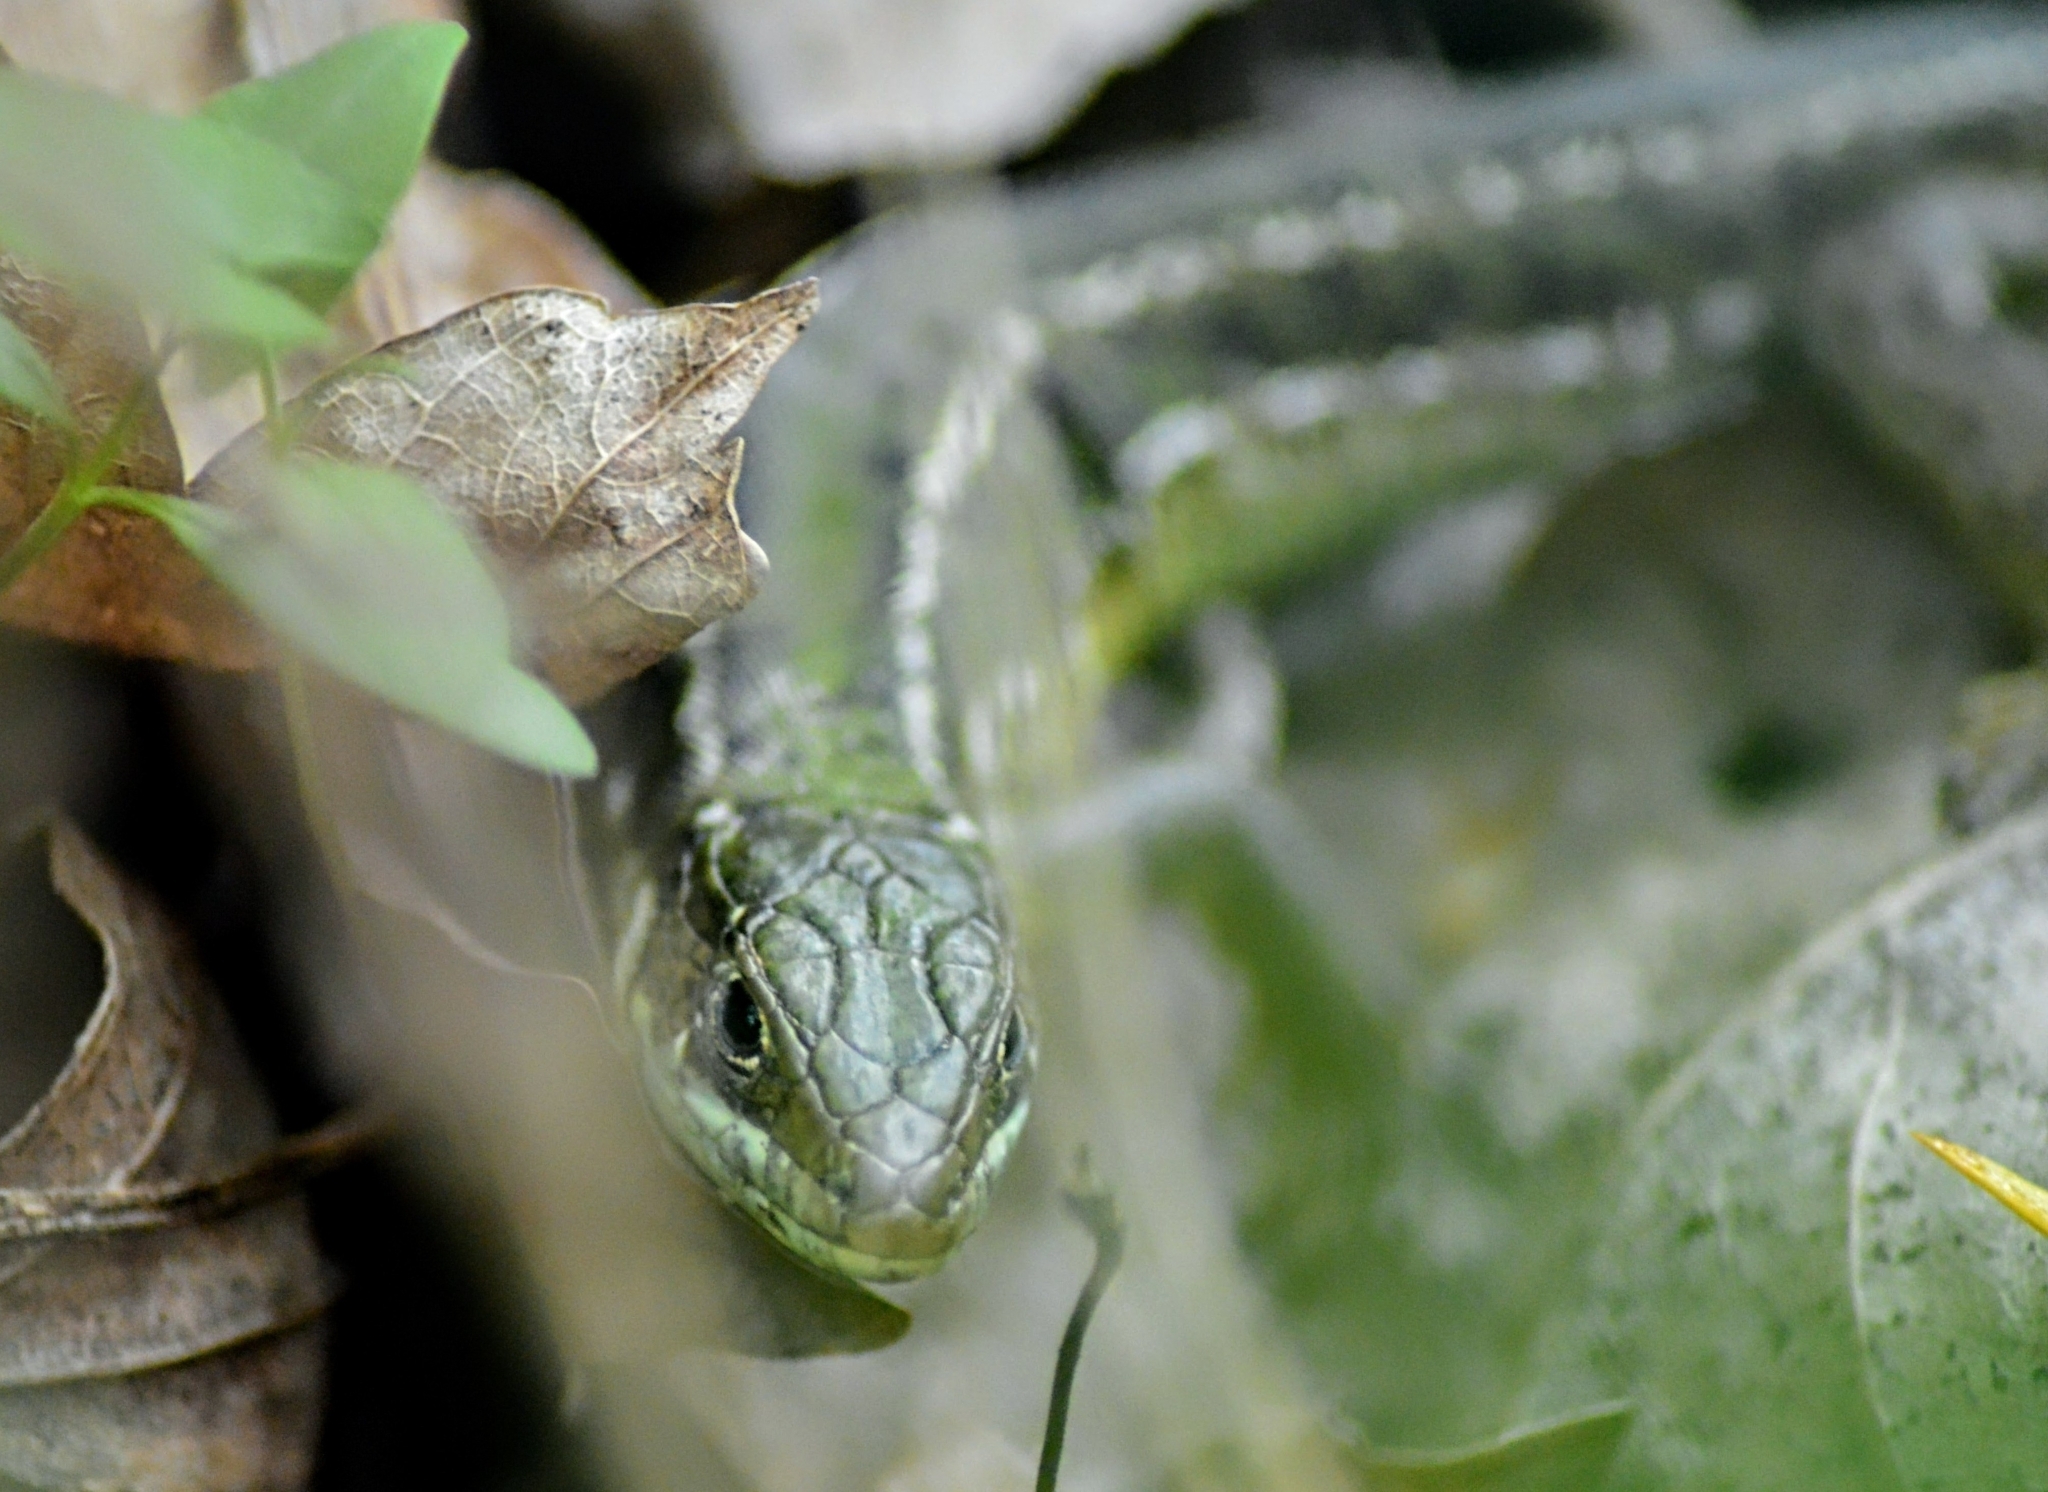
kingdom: Animalia
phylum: Chordata
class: Squamata
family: Lacertidae
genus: Lacerta
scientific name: Lacerta bilineata
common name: Western green lizard
